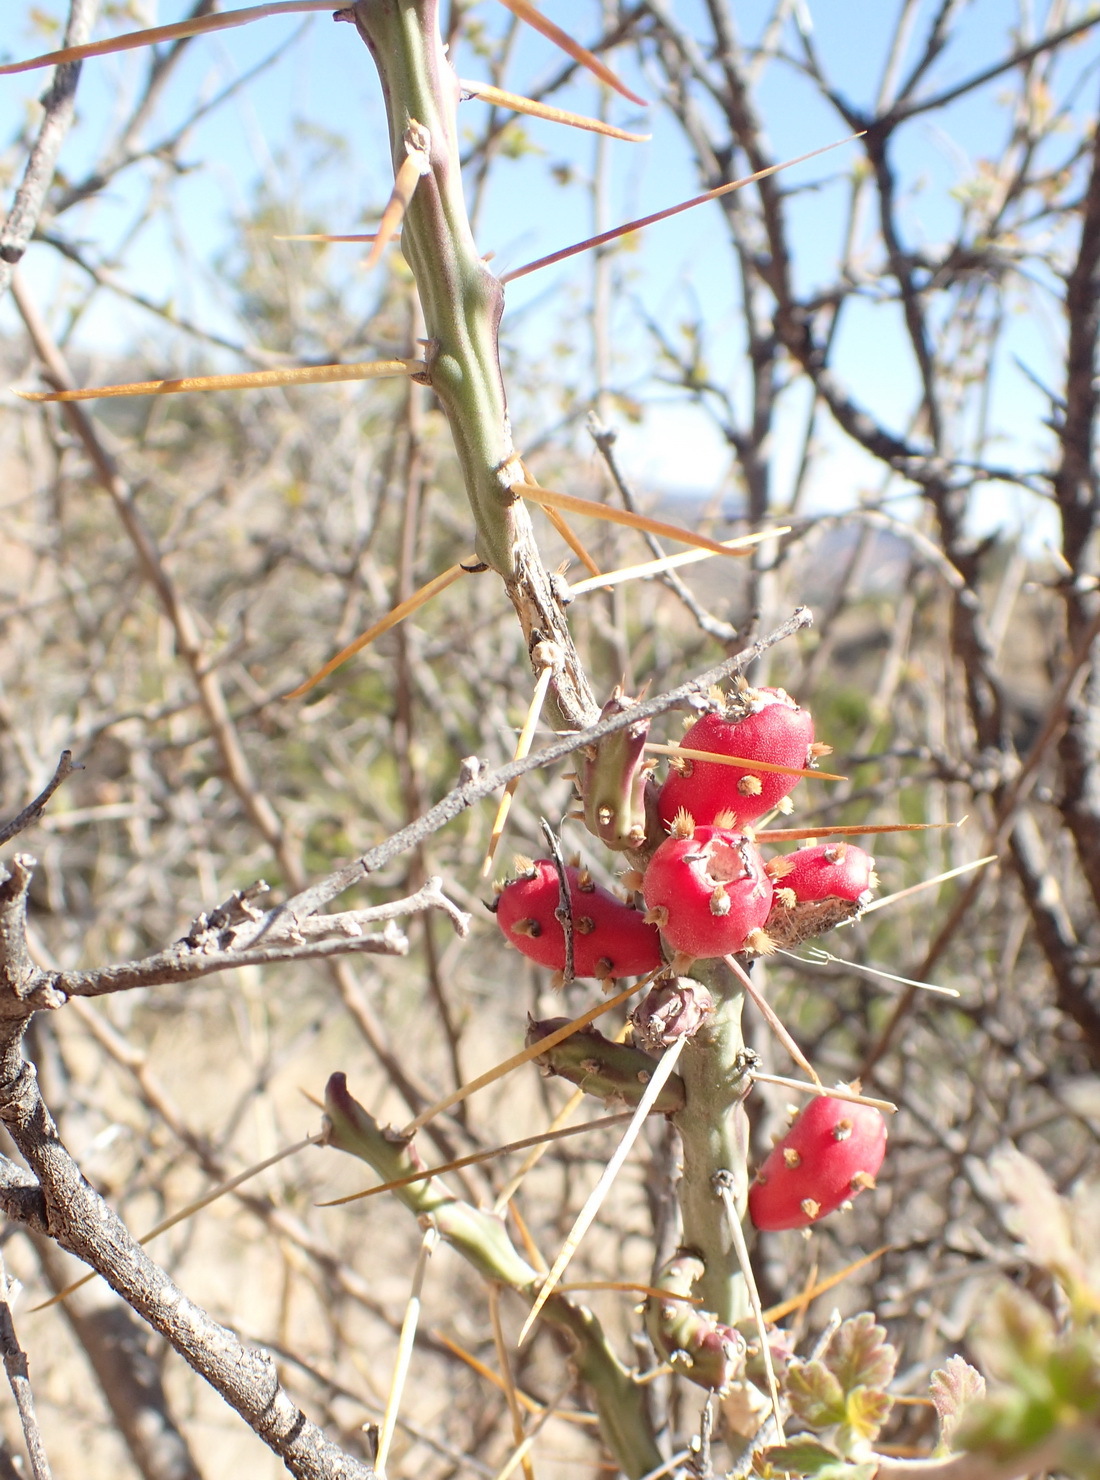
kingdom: Plantae
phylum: Tracheophyta
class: Magnoliopsida
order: Caryophyllales
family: Cactaceae
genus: Cylindropuntia
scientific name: Cylindropuntia leptocaulis
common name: Christmas cactus
